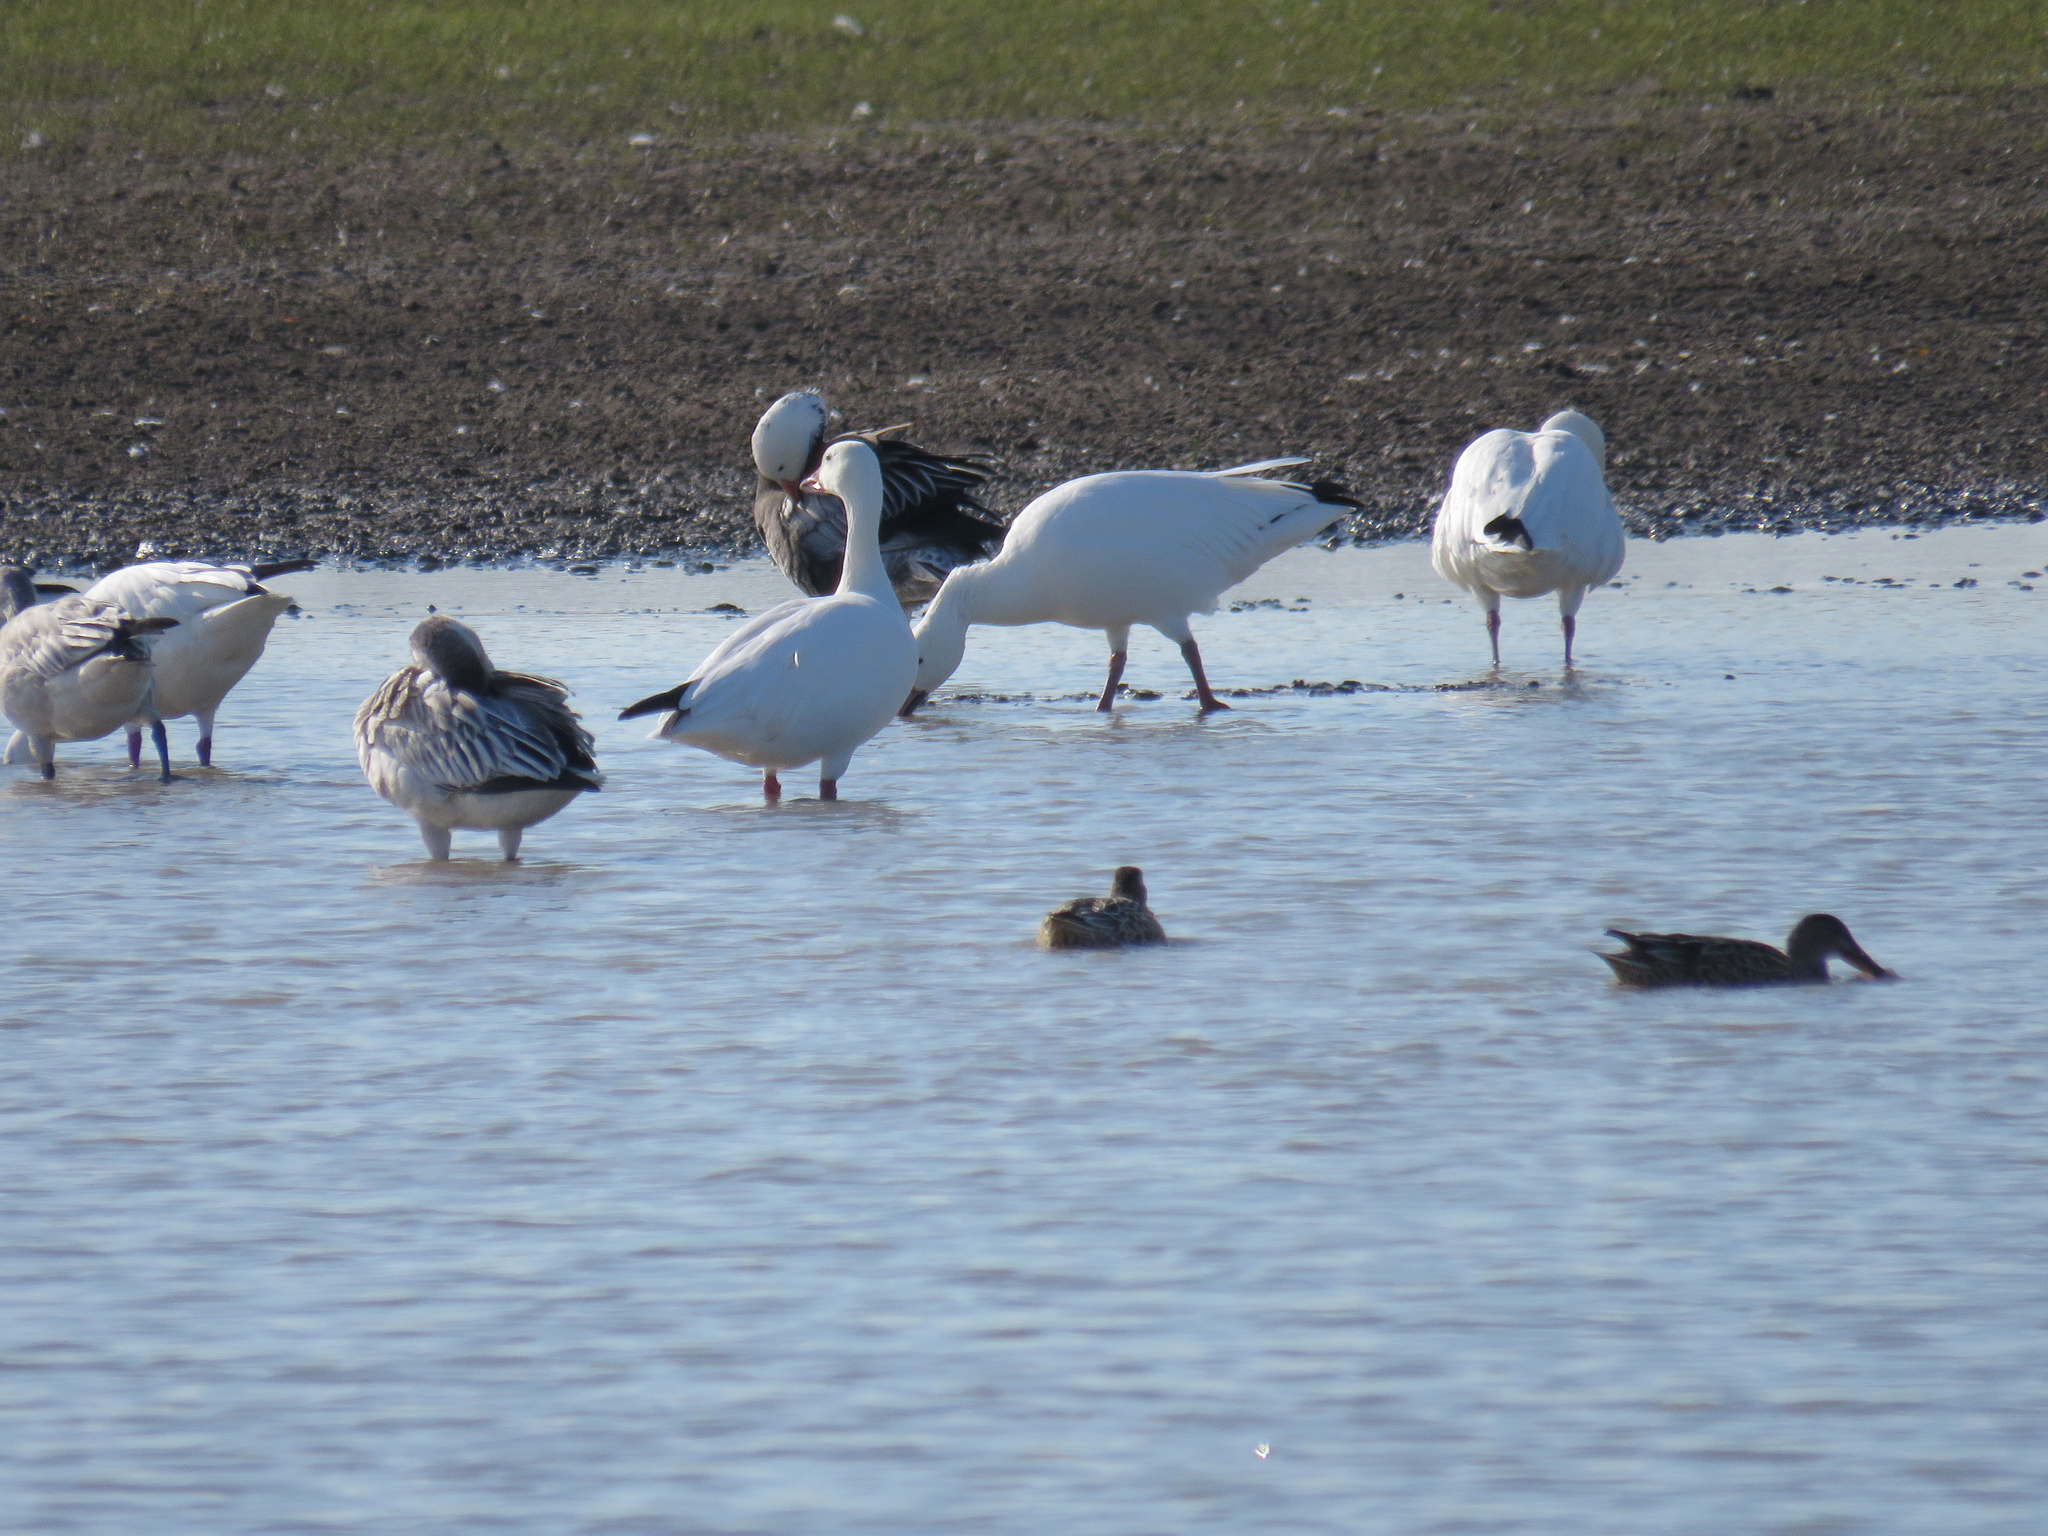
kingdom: Animalia
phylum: Chordata
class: Aves
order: Anseriformes
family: Anatidae
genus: Anser
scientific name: Anser caerulescens
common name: Snow goose
